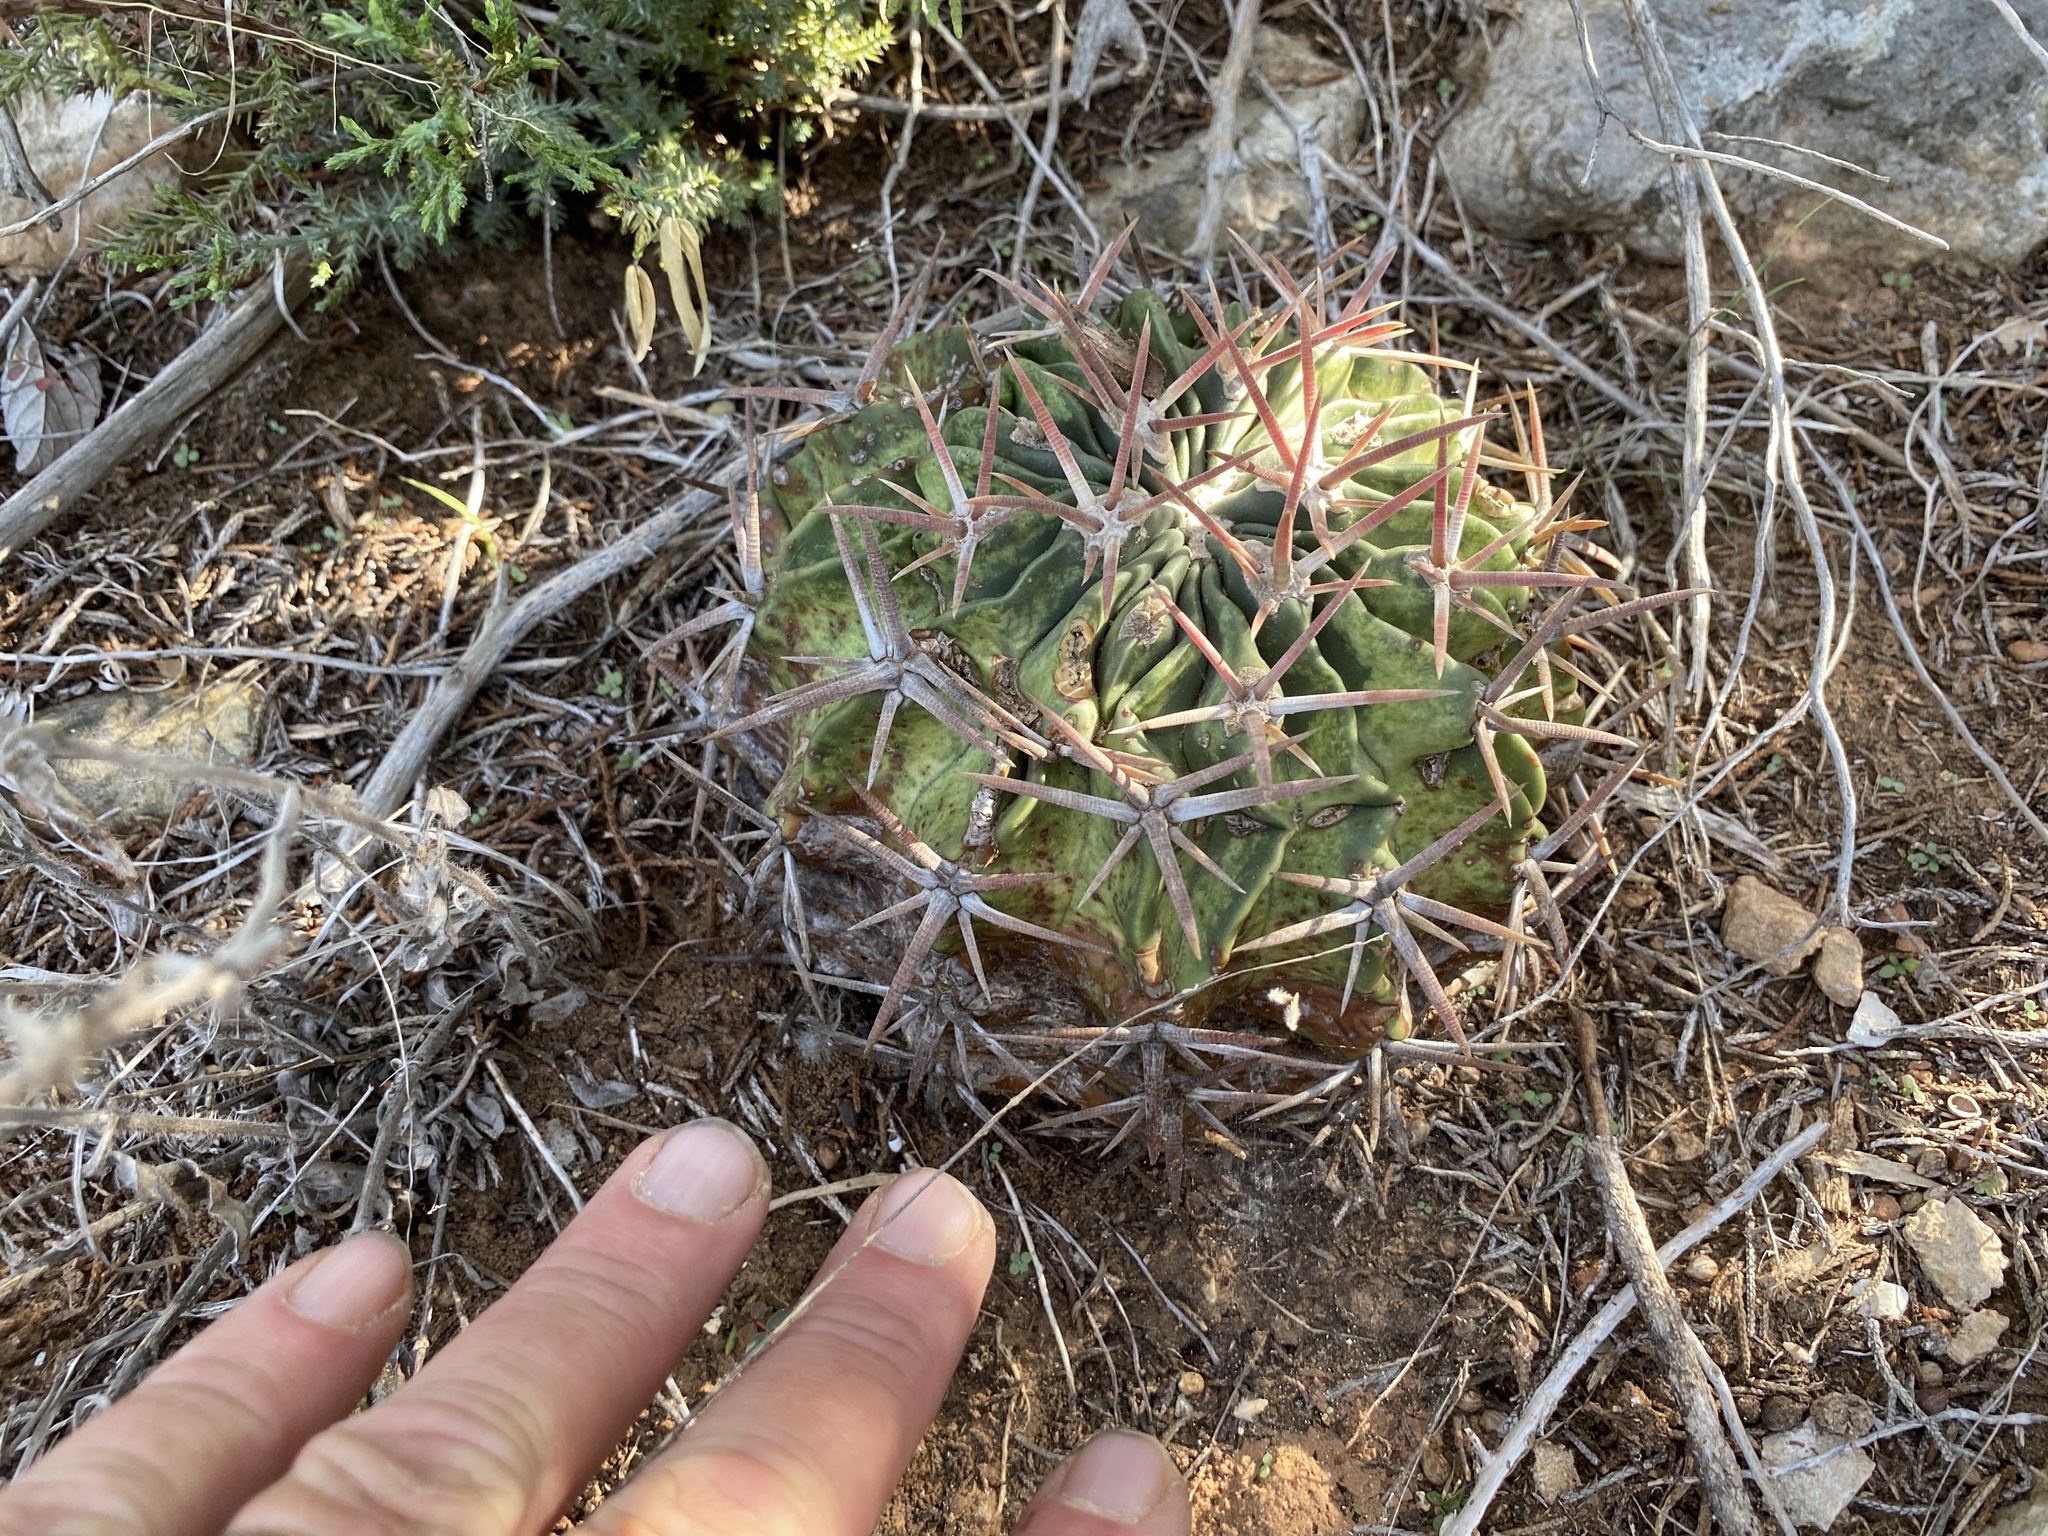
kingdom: Plantae
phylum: Tracheophyta
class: Magnoliopsida
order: Caryophyllales
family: Cactaceae
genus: Echinocactus
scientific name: Echinocactus texensis
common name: Devil's pincushion
